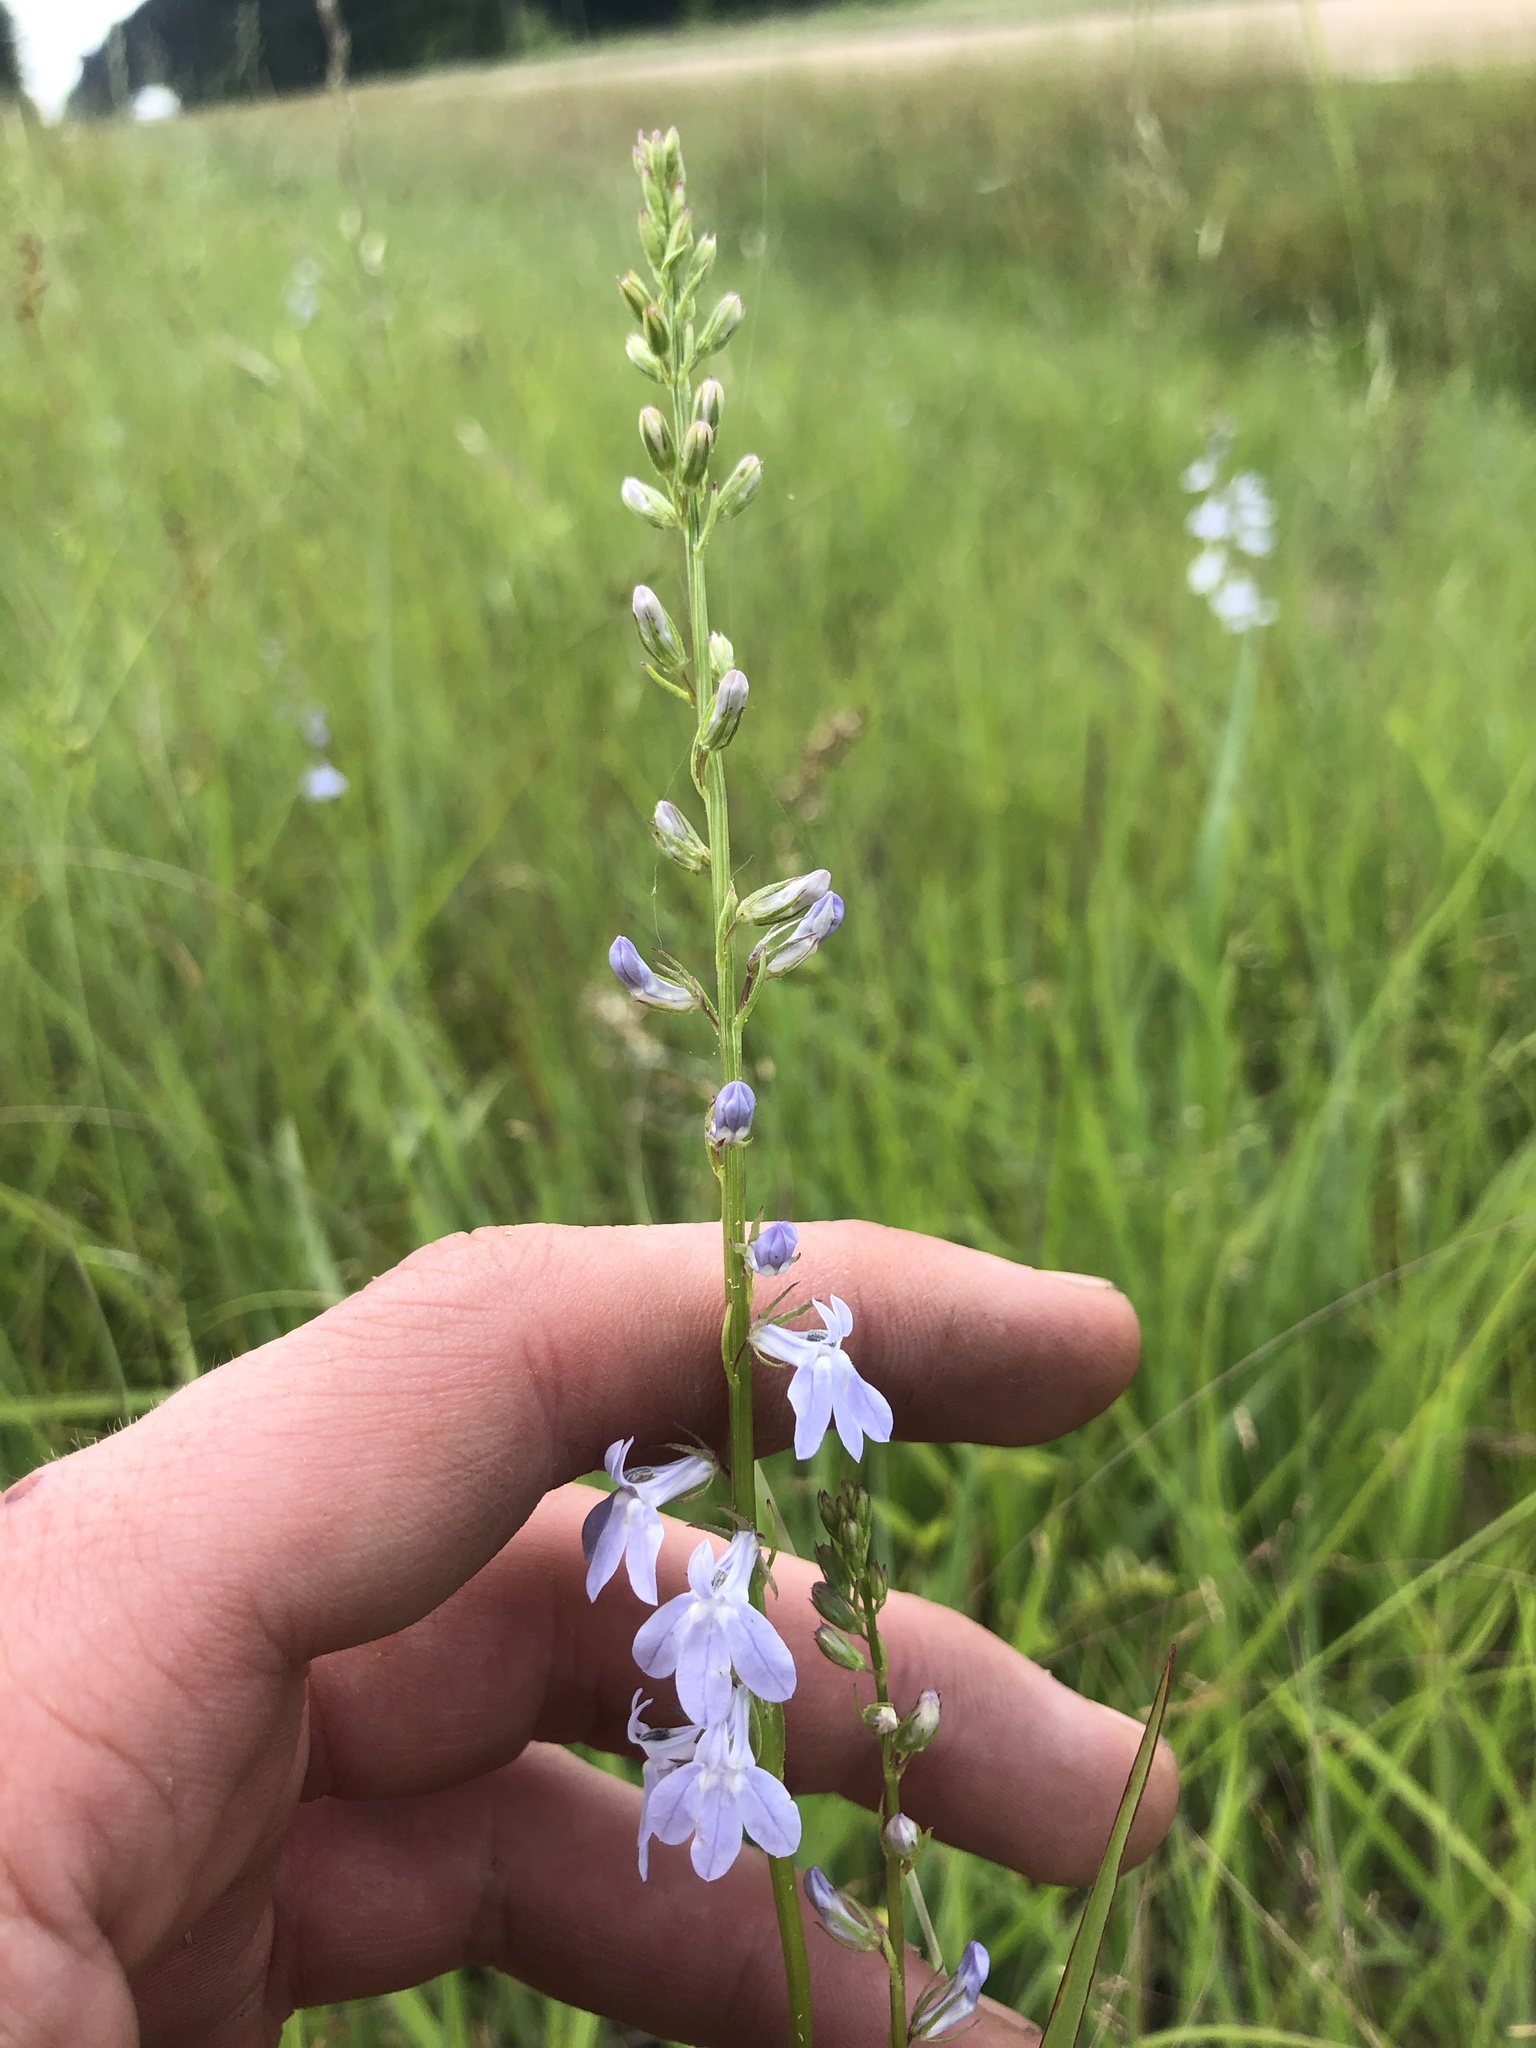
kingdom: Plantae
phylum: Tracheophyta
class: Magnoliopsida
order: Asterales
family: Campanulaceae
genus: Lobelia
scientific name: Lobelia appendiculata
